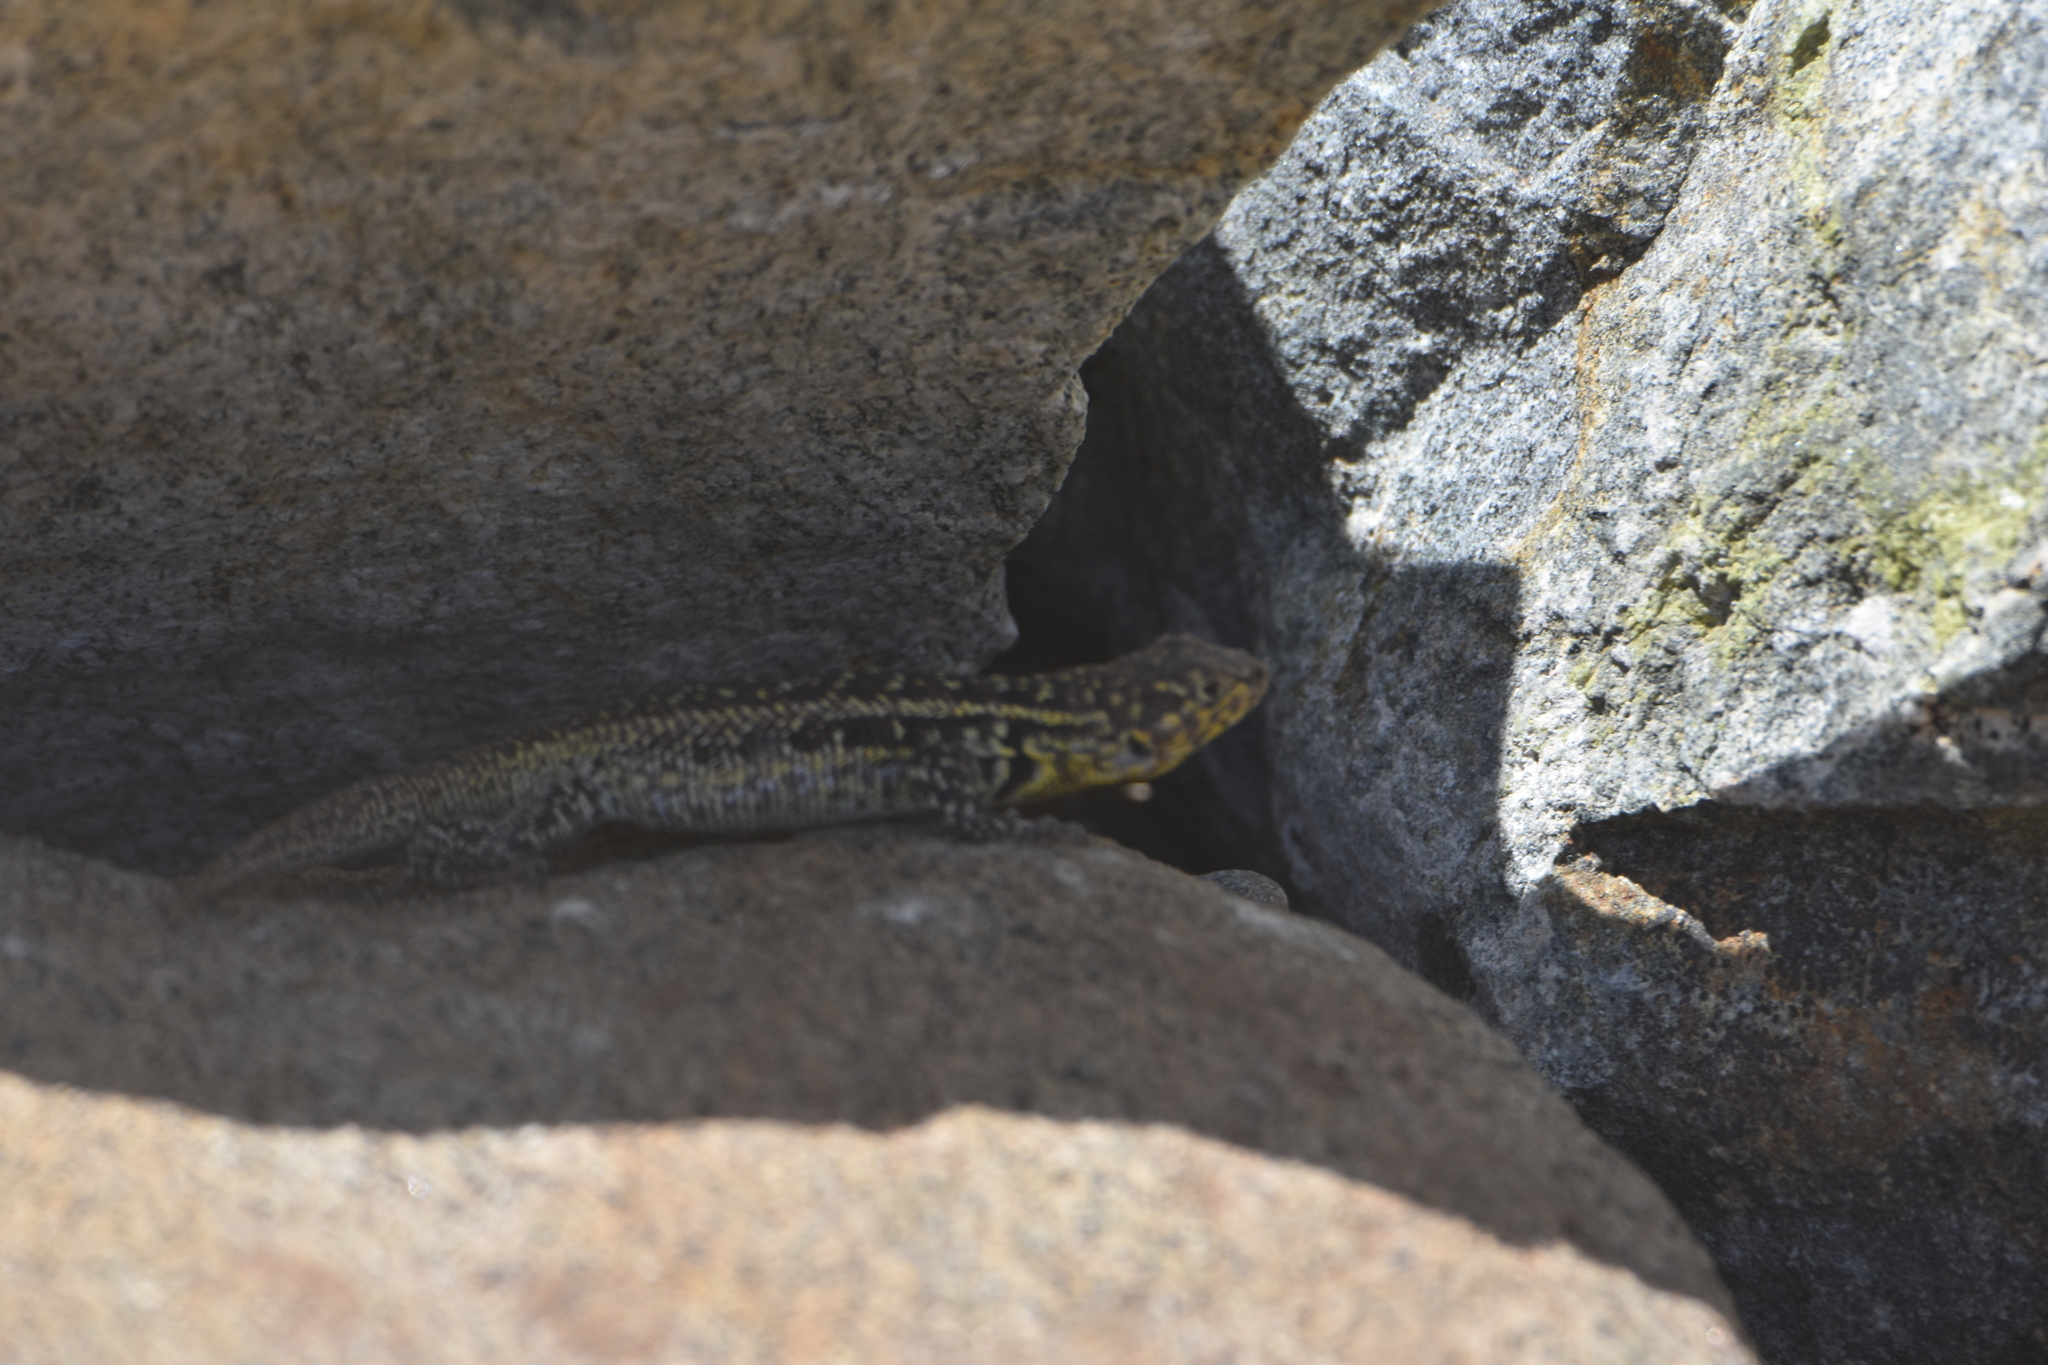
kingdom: Animalia
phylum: Chordata
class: Squamata
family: Liolaemidae
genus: Liolaemus
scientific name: Liolaemus zapallarensis
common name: Zapallaren tree iguana
